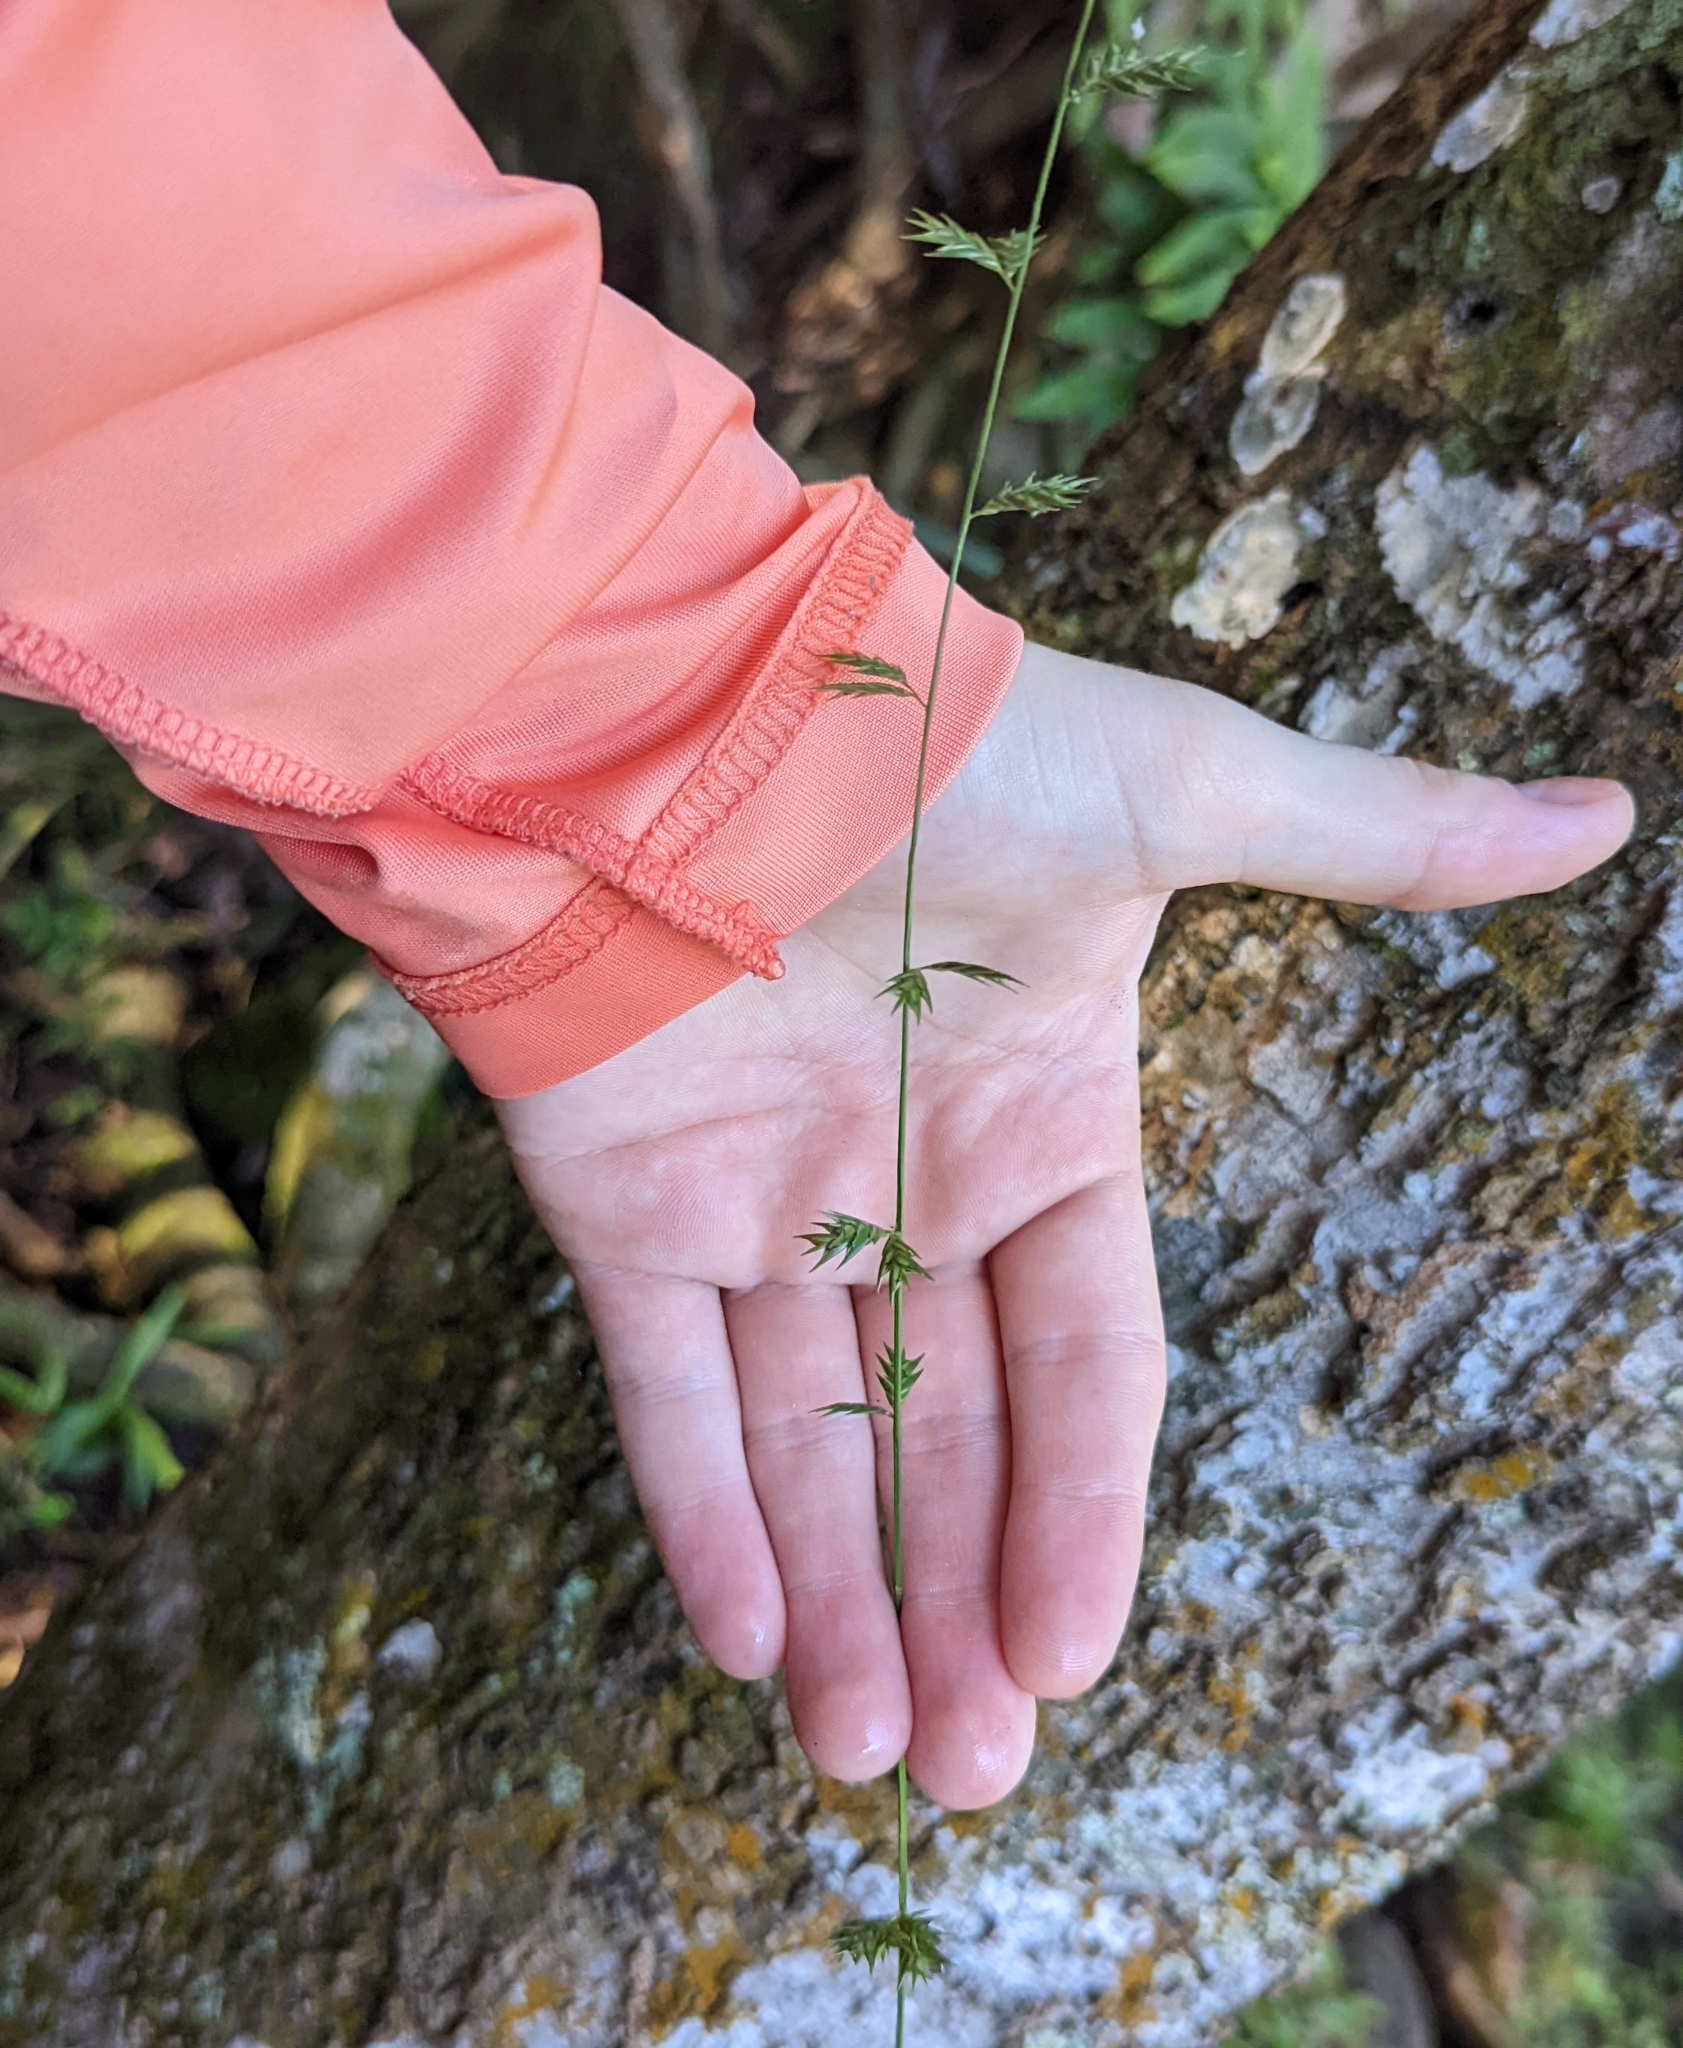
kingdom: Plantae
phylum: Tracheophyta
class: Liliopsida
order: Poales
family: Poaceae
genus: Chasmanthium
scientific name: Chasmanthium laxum
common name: Slender chasmanthium
